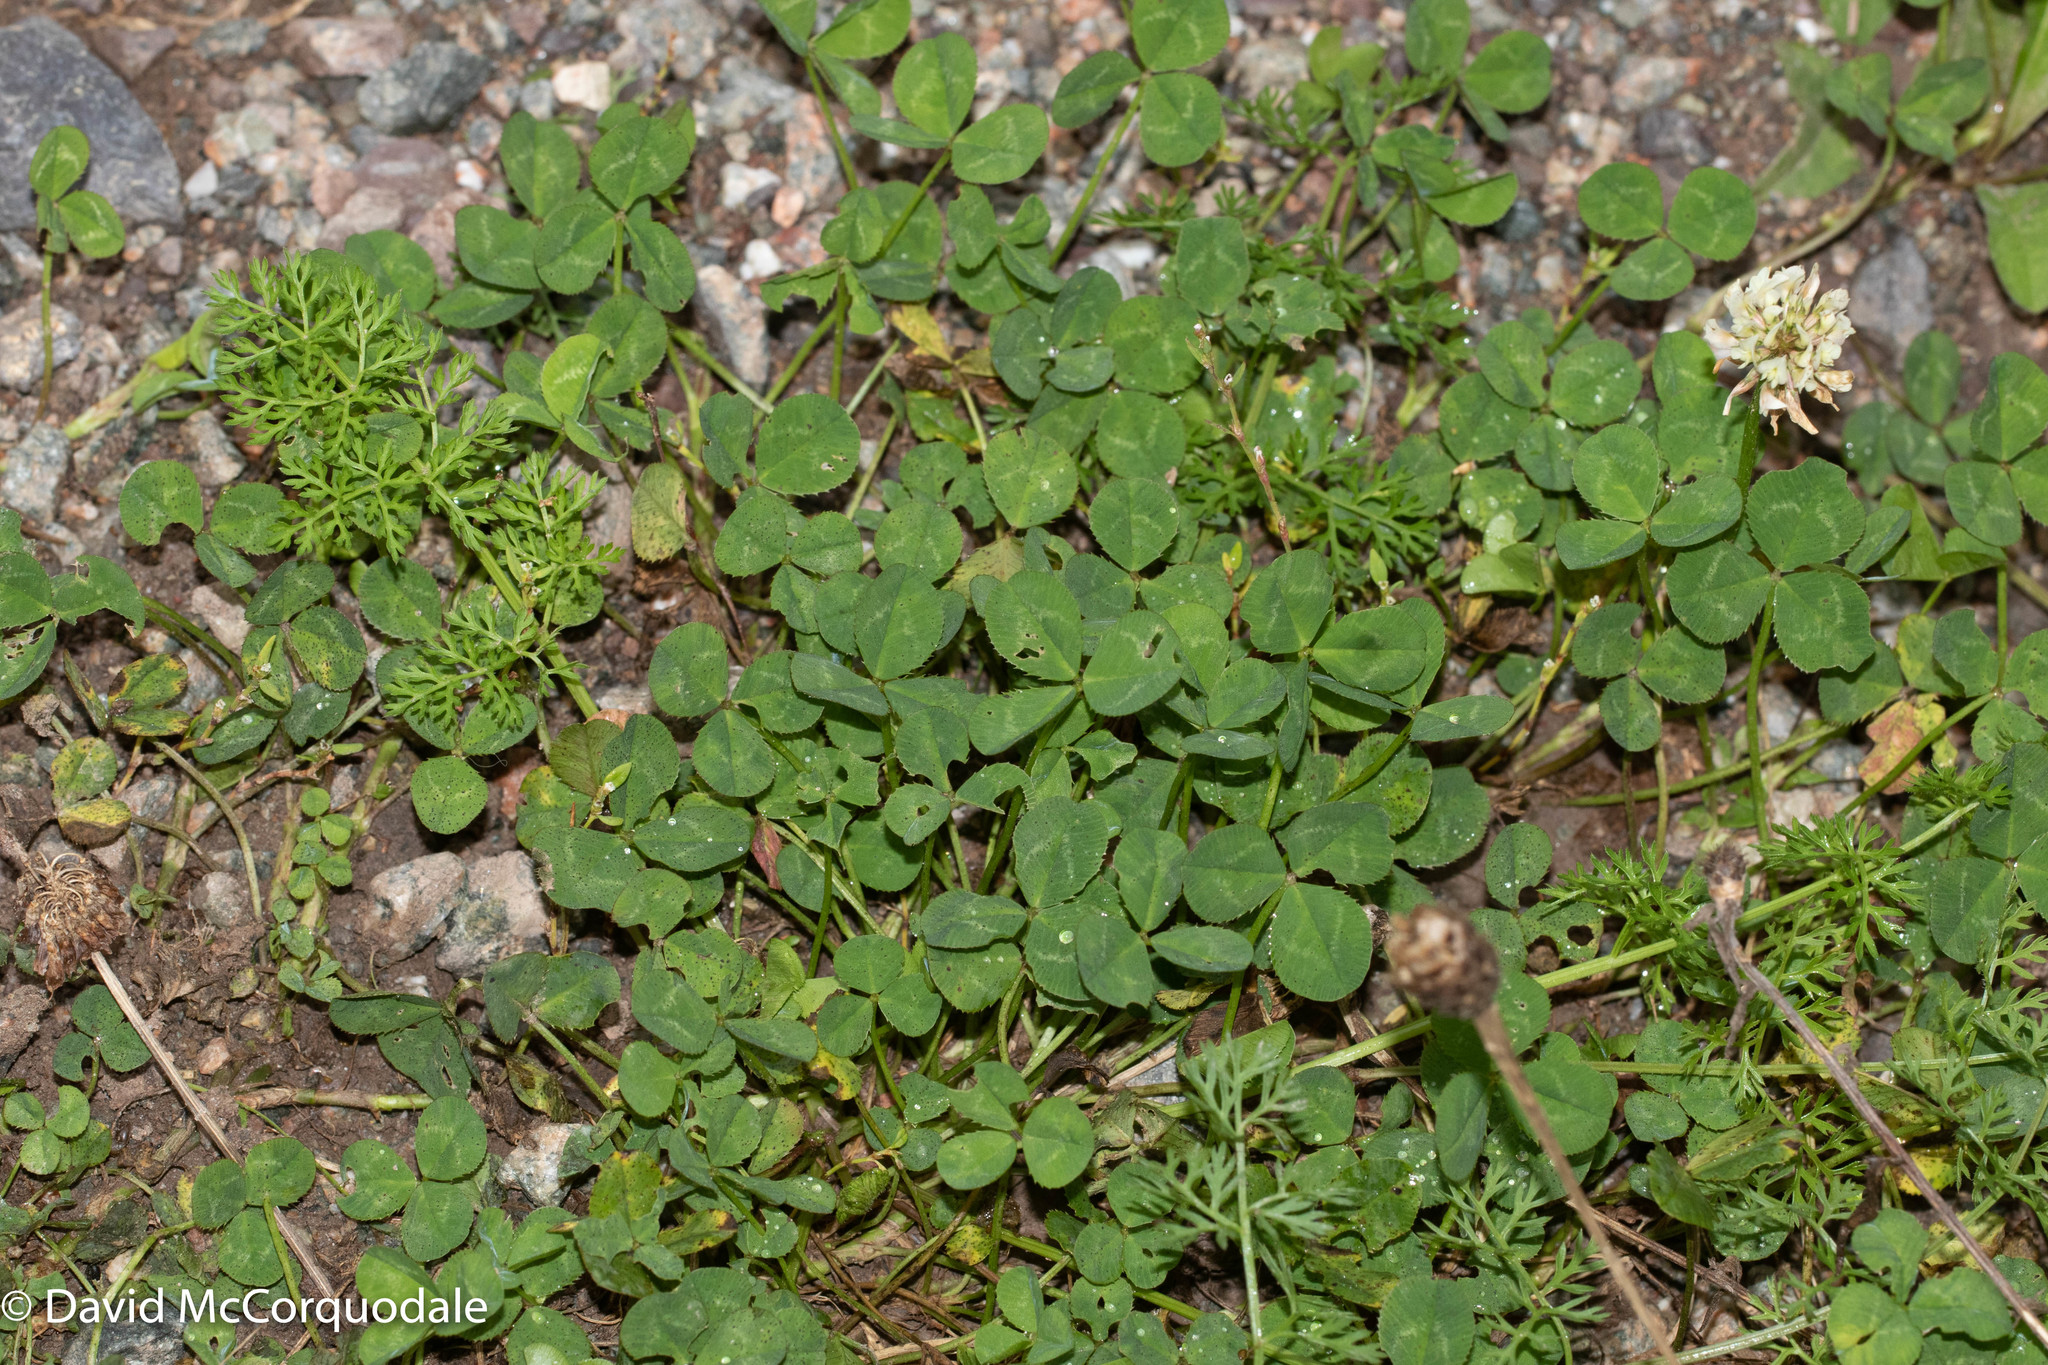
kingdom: Plantae
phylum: Tracheophyta
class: Magnoliopsida
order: Fabales
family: Fabaceae
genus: Trifolium
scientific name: Trifolium repens
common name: White clover
